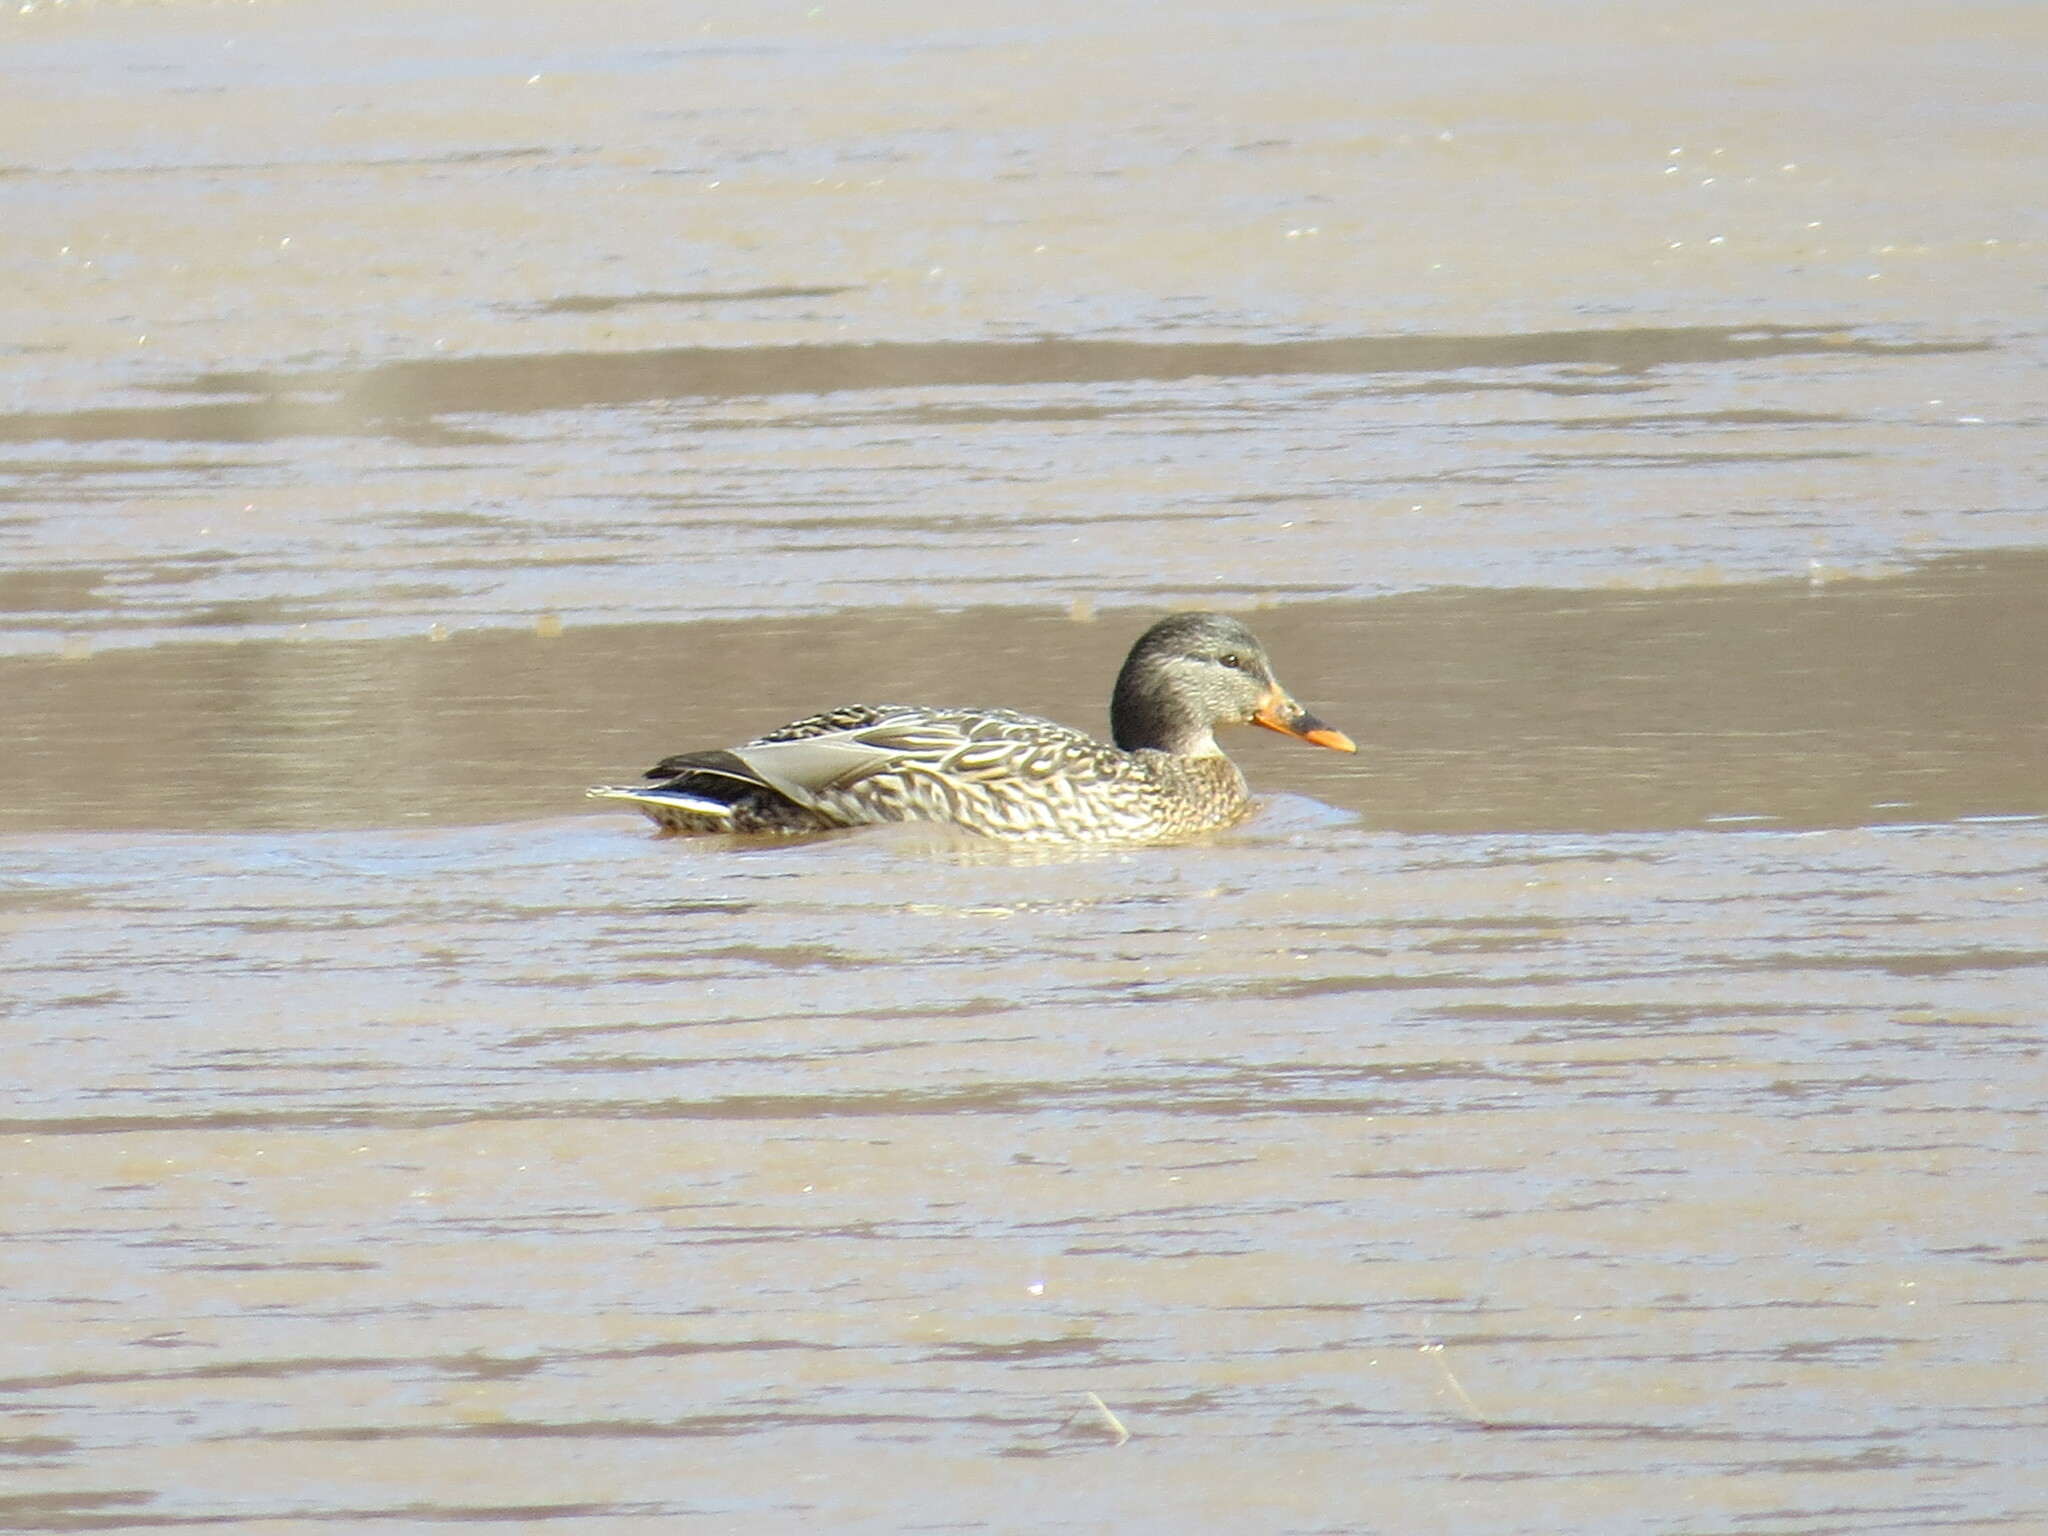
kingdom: Animalia
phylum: Chordata
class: Aves
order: Anseriformes
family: Anatidae
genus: Anas
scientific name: Anas platyrhynchos
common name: Mallard
